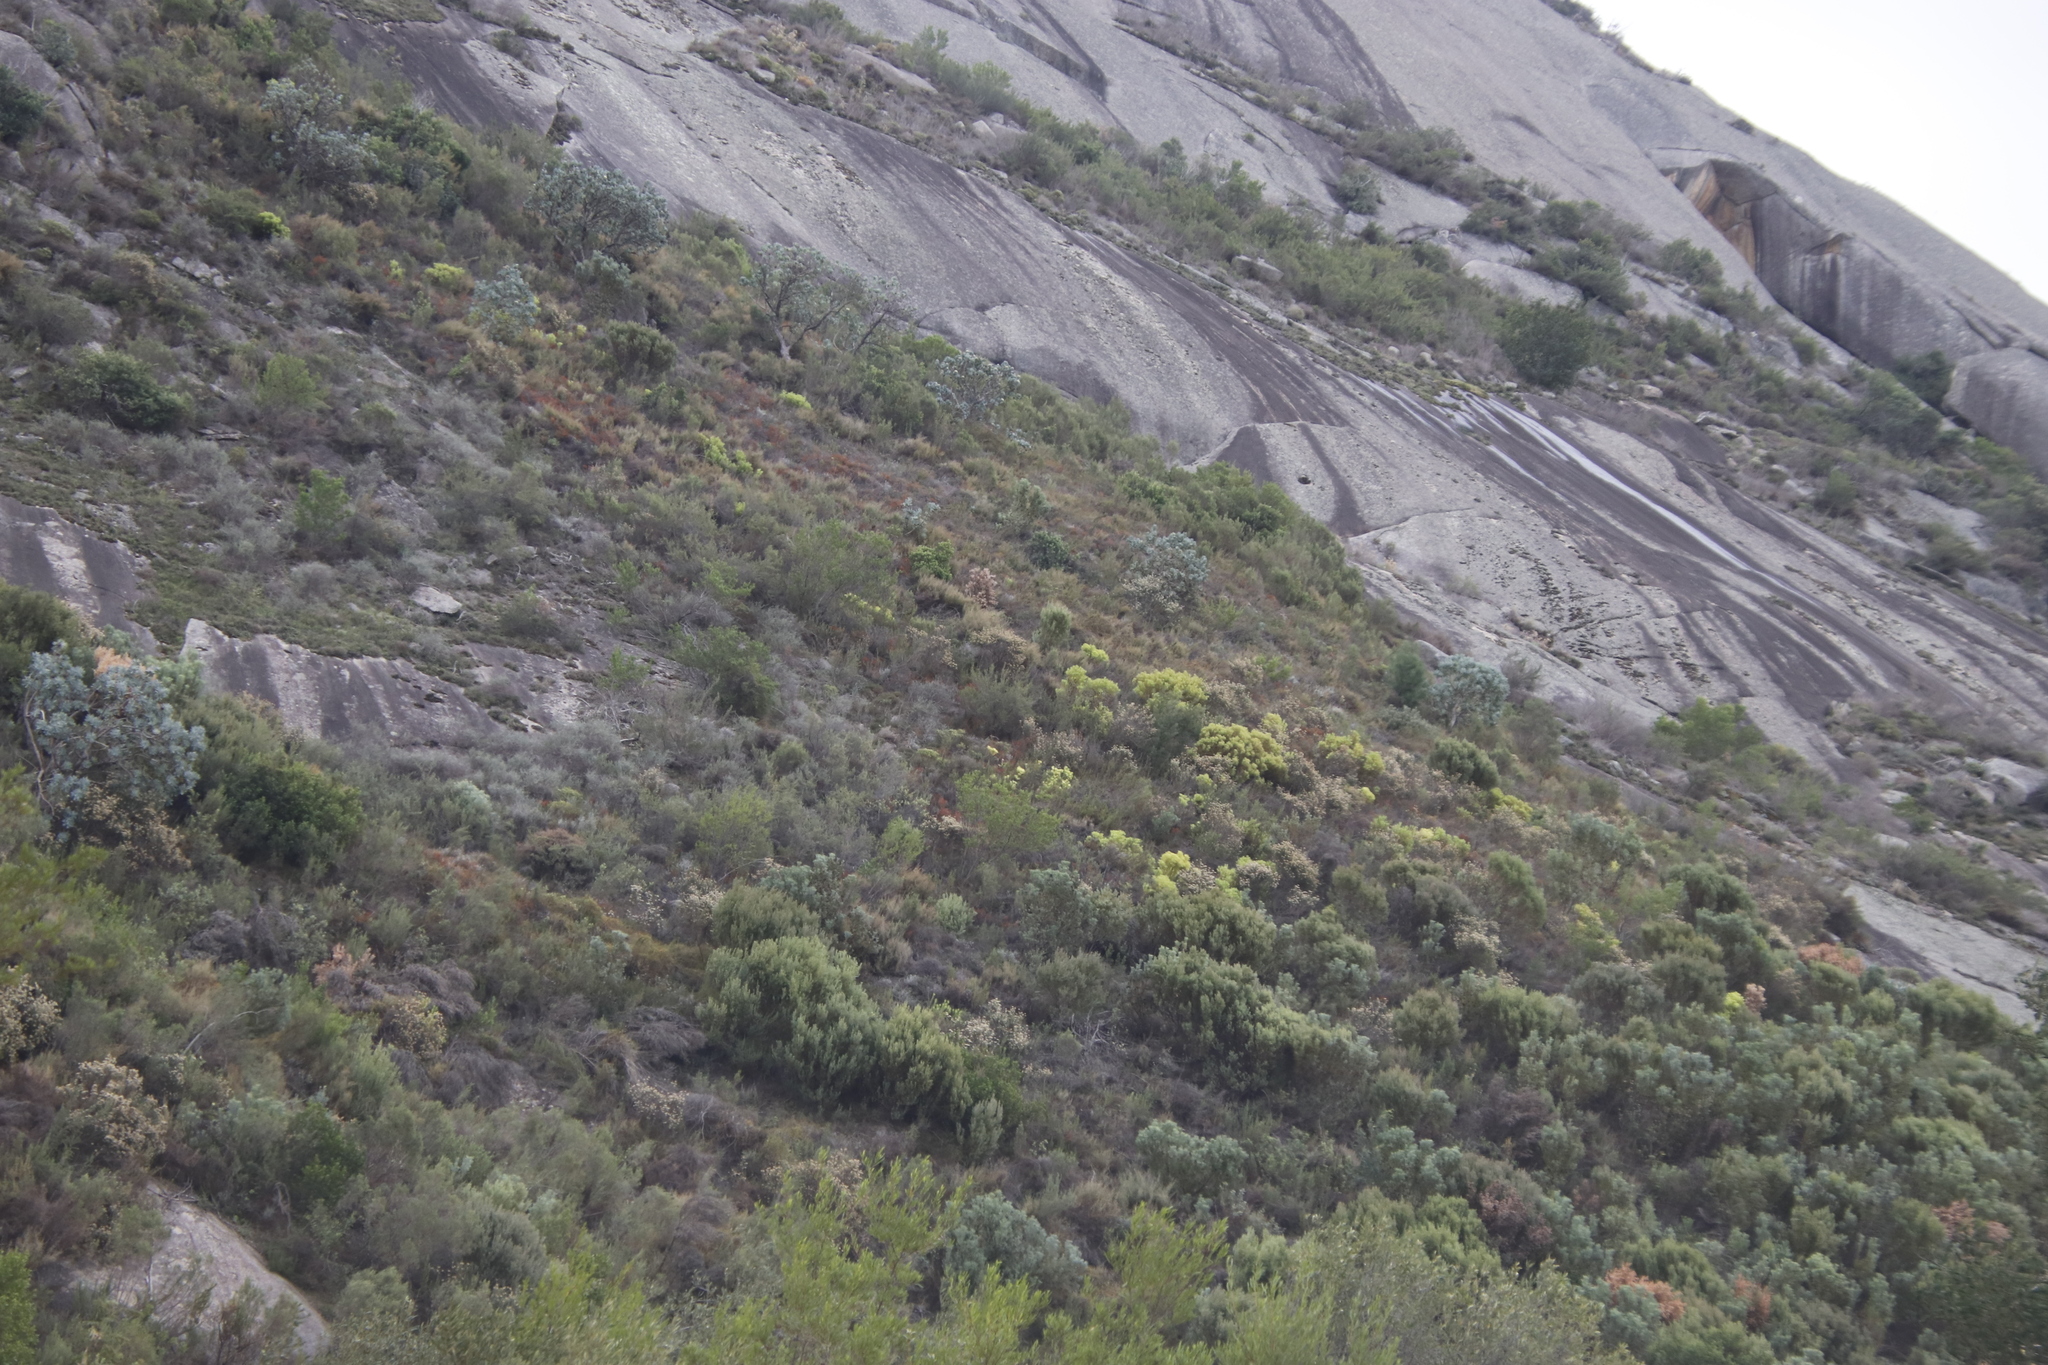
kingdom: Plantae
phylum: Tracheophyta
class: Magnoliopsida
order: Proteales
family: Proteaceae
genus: Protea
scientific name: Protea nitida
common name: Tree protea
